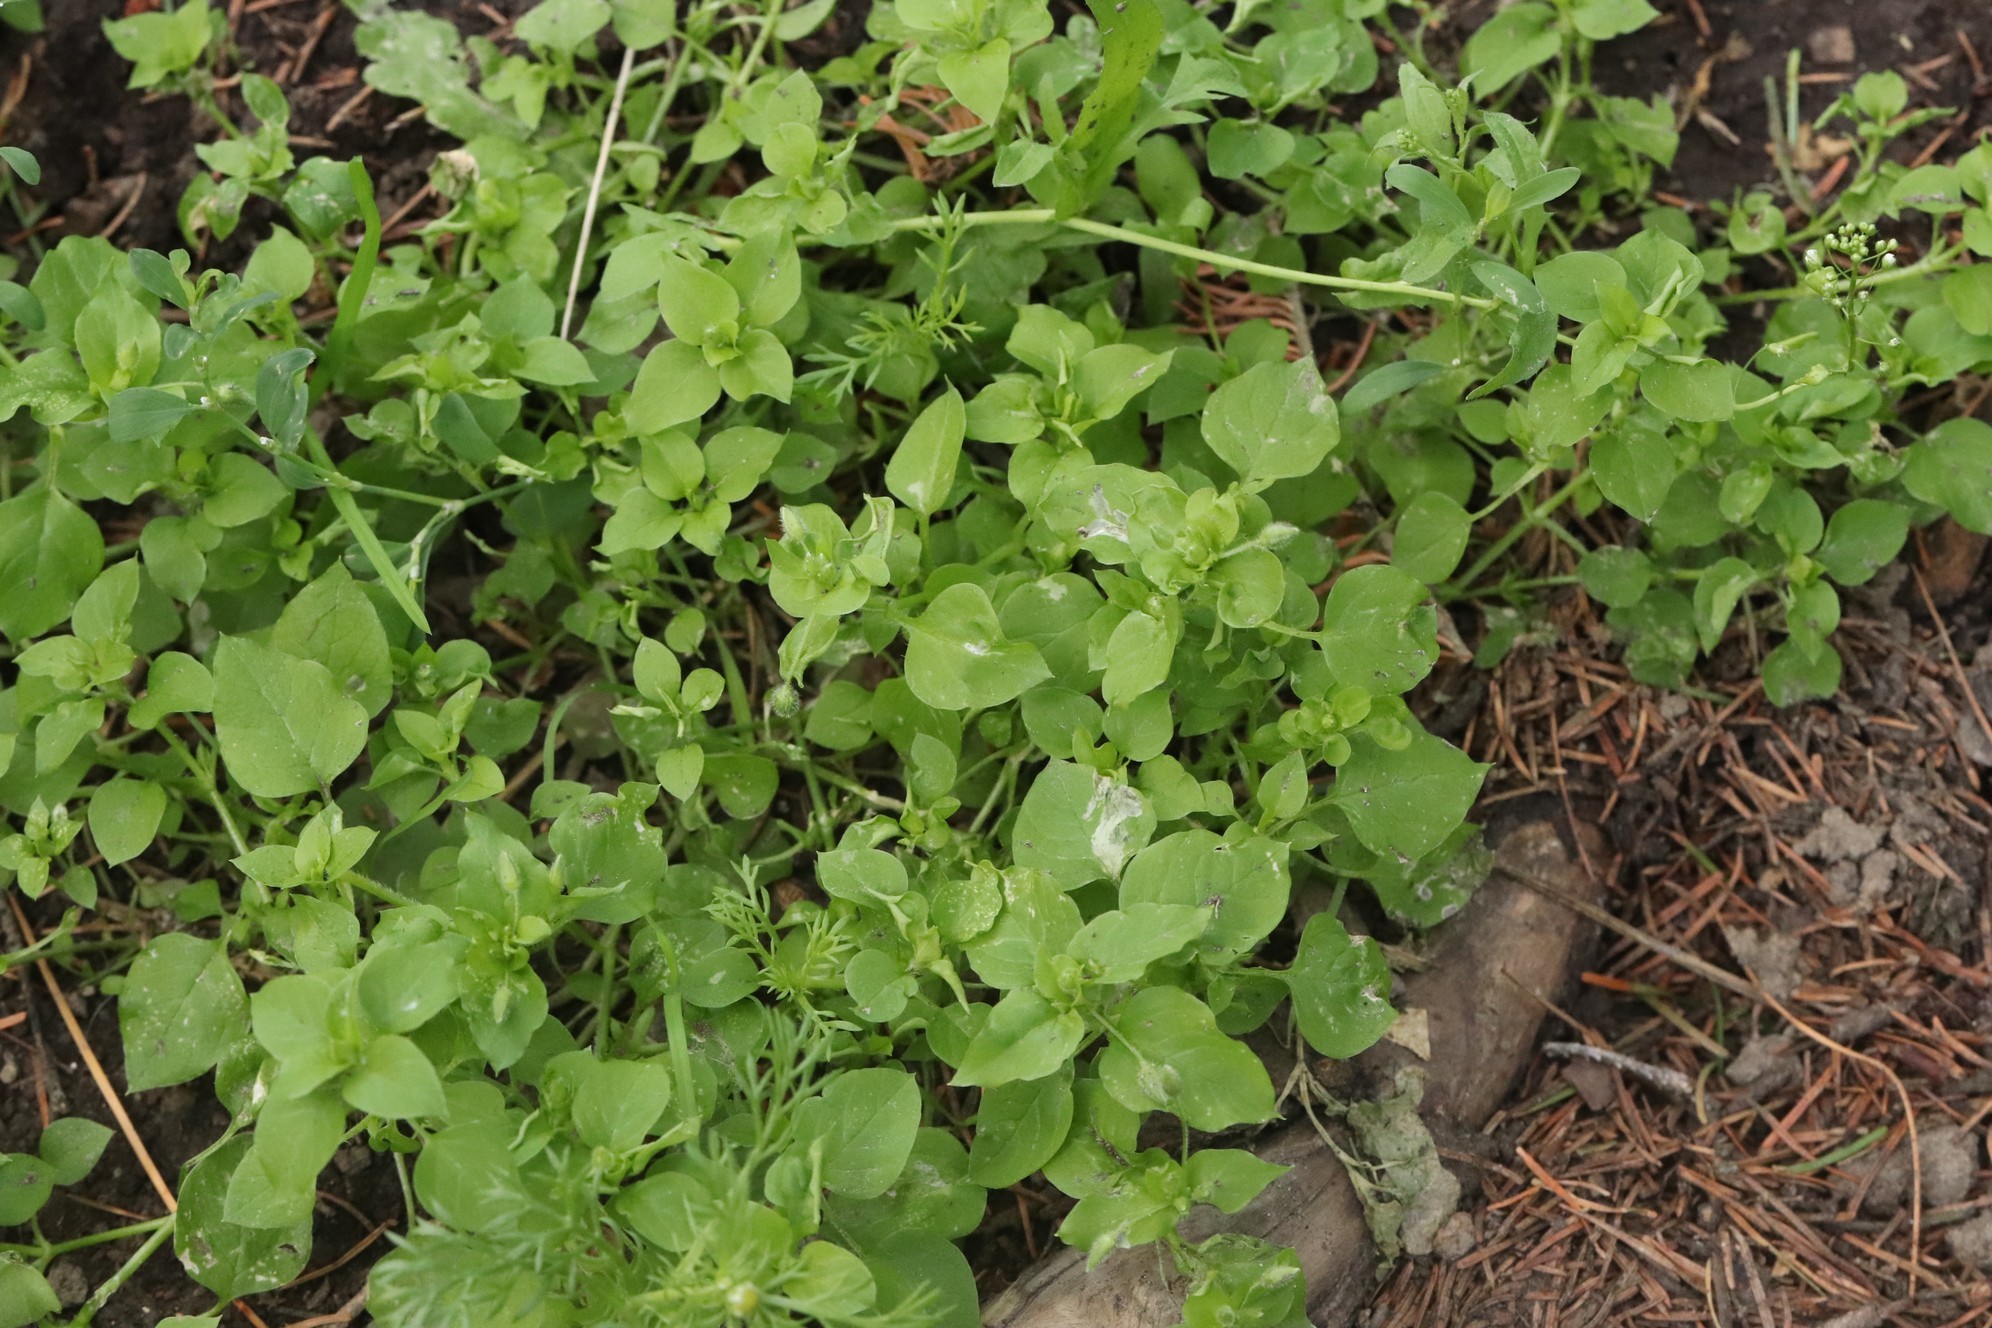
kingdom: Plantae
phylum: Tracheophyta
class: Magnoliopsida
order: Caryophyllales
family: Caryophyllaceae
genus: Stellaria
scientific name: Stellaria media
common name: Common chickweed
